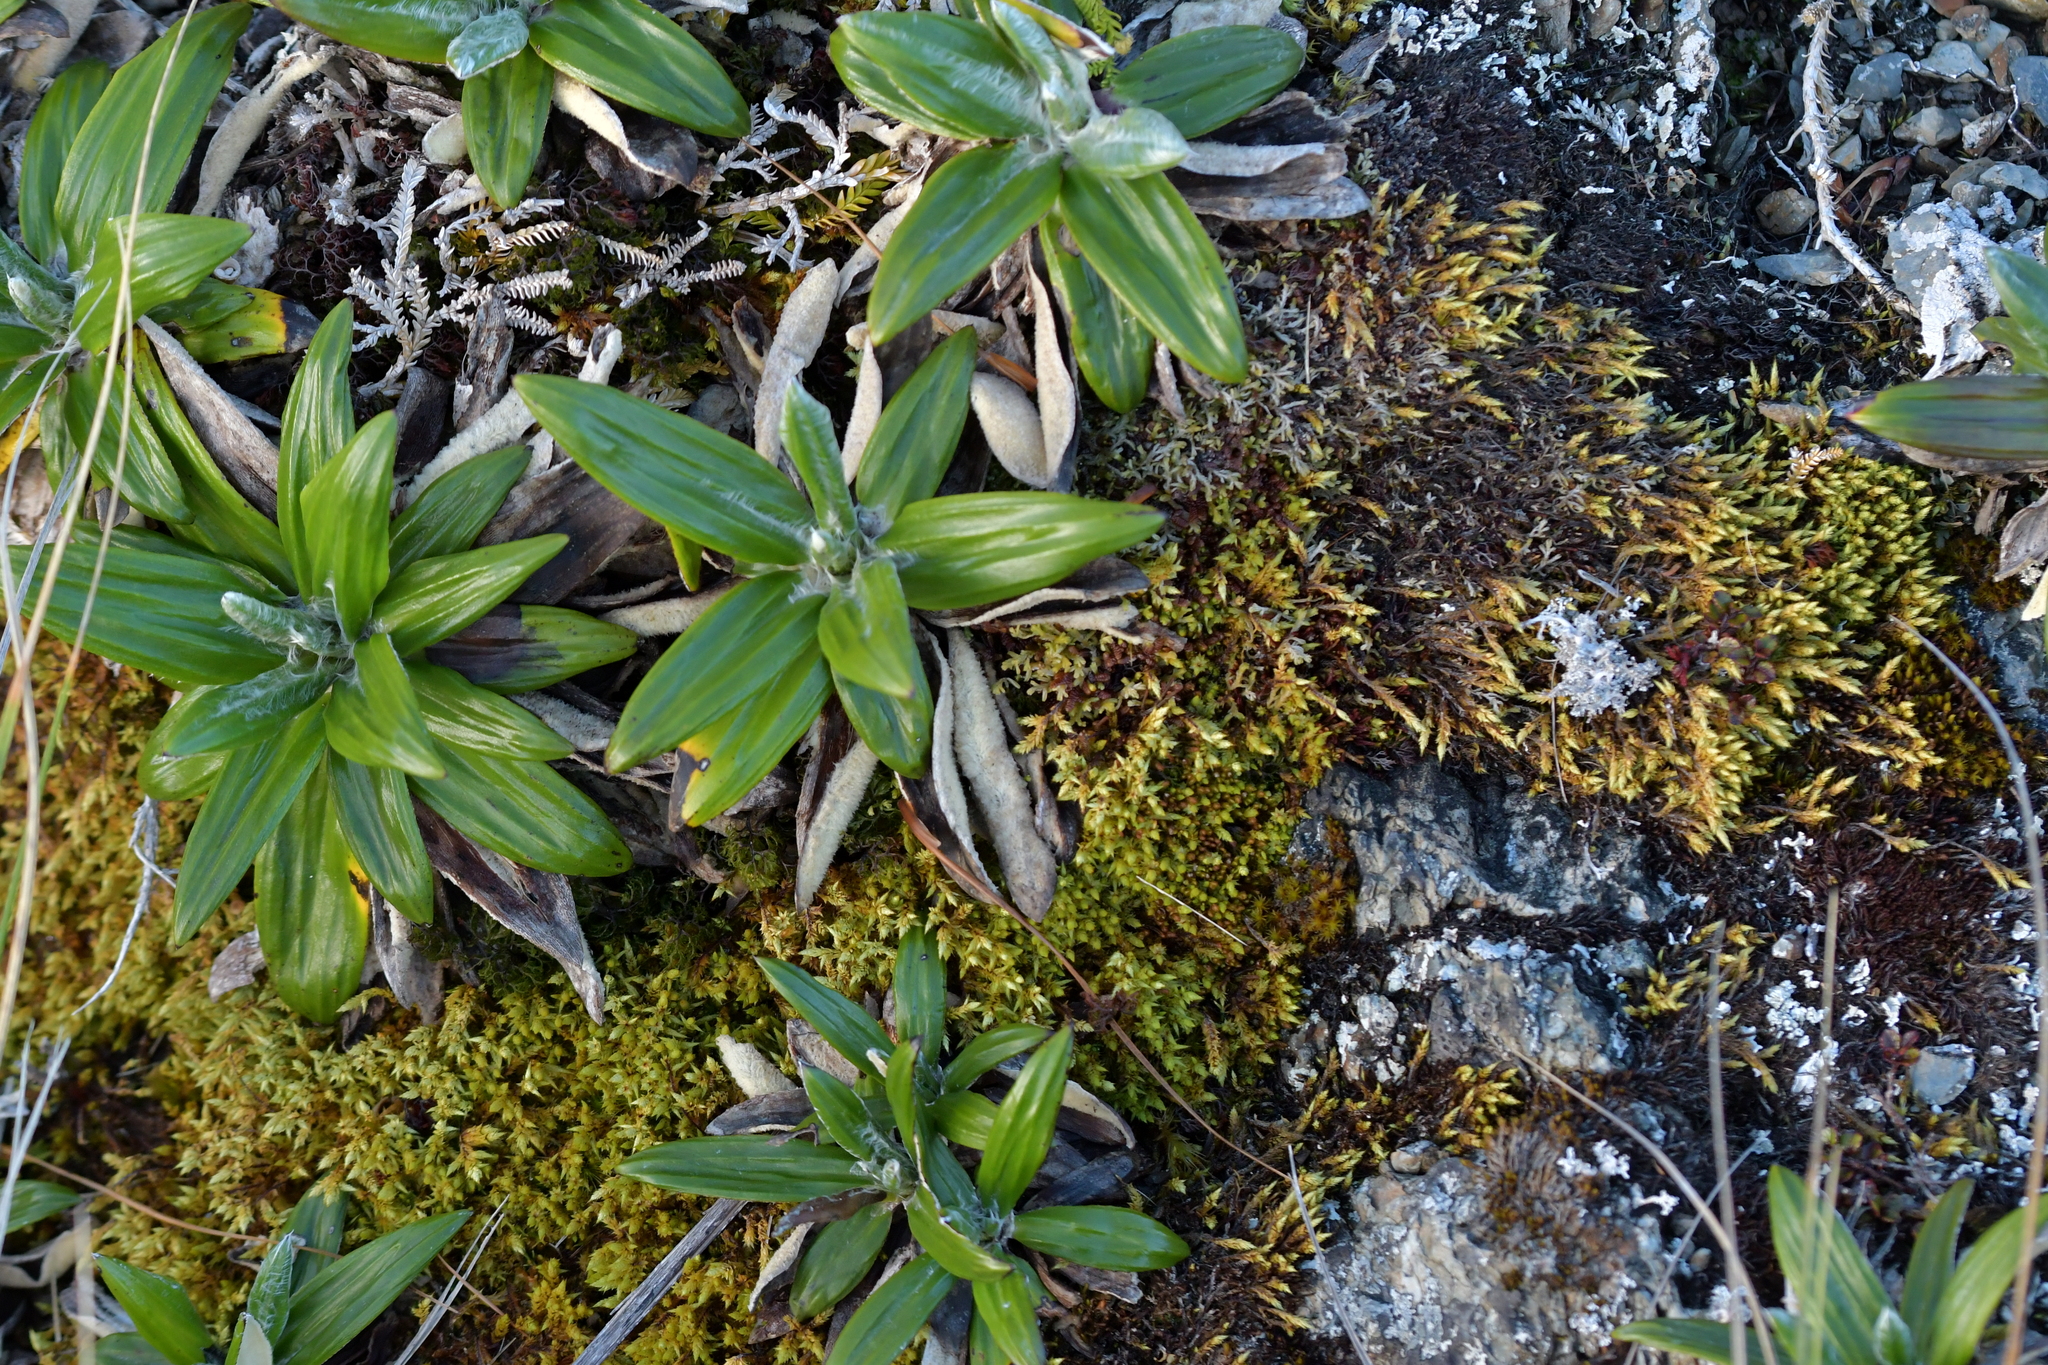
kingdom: Plantae
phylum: Tracheophyta
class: Magnoliopsida
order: Asterales
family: Asteraceae
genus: Celmisia
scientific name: Celmisia spectabilis
